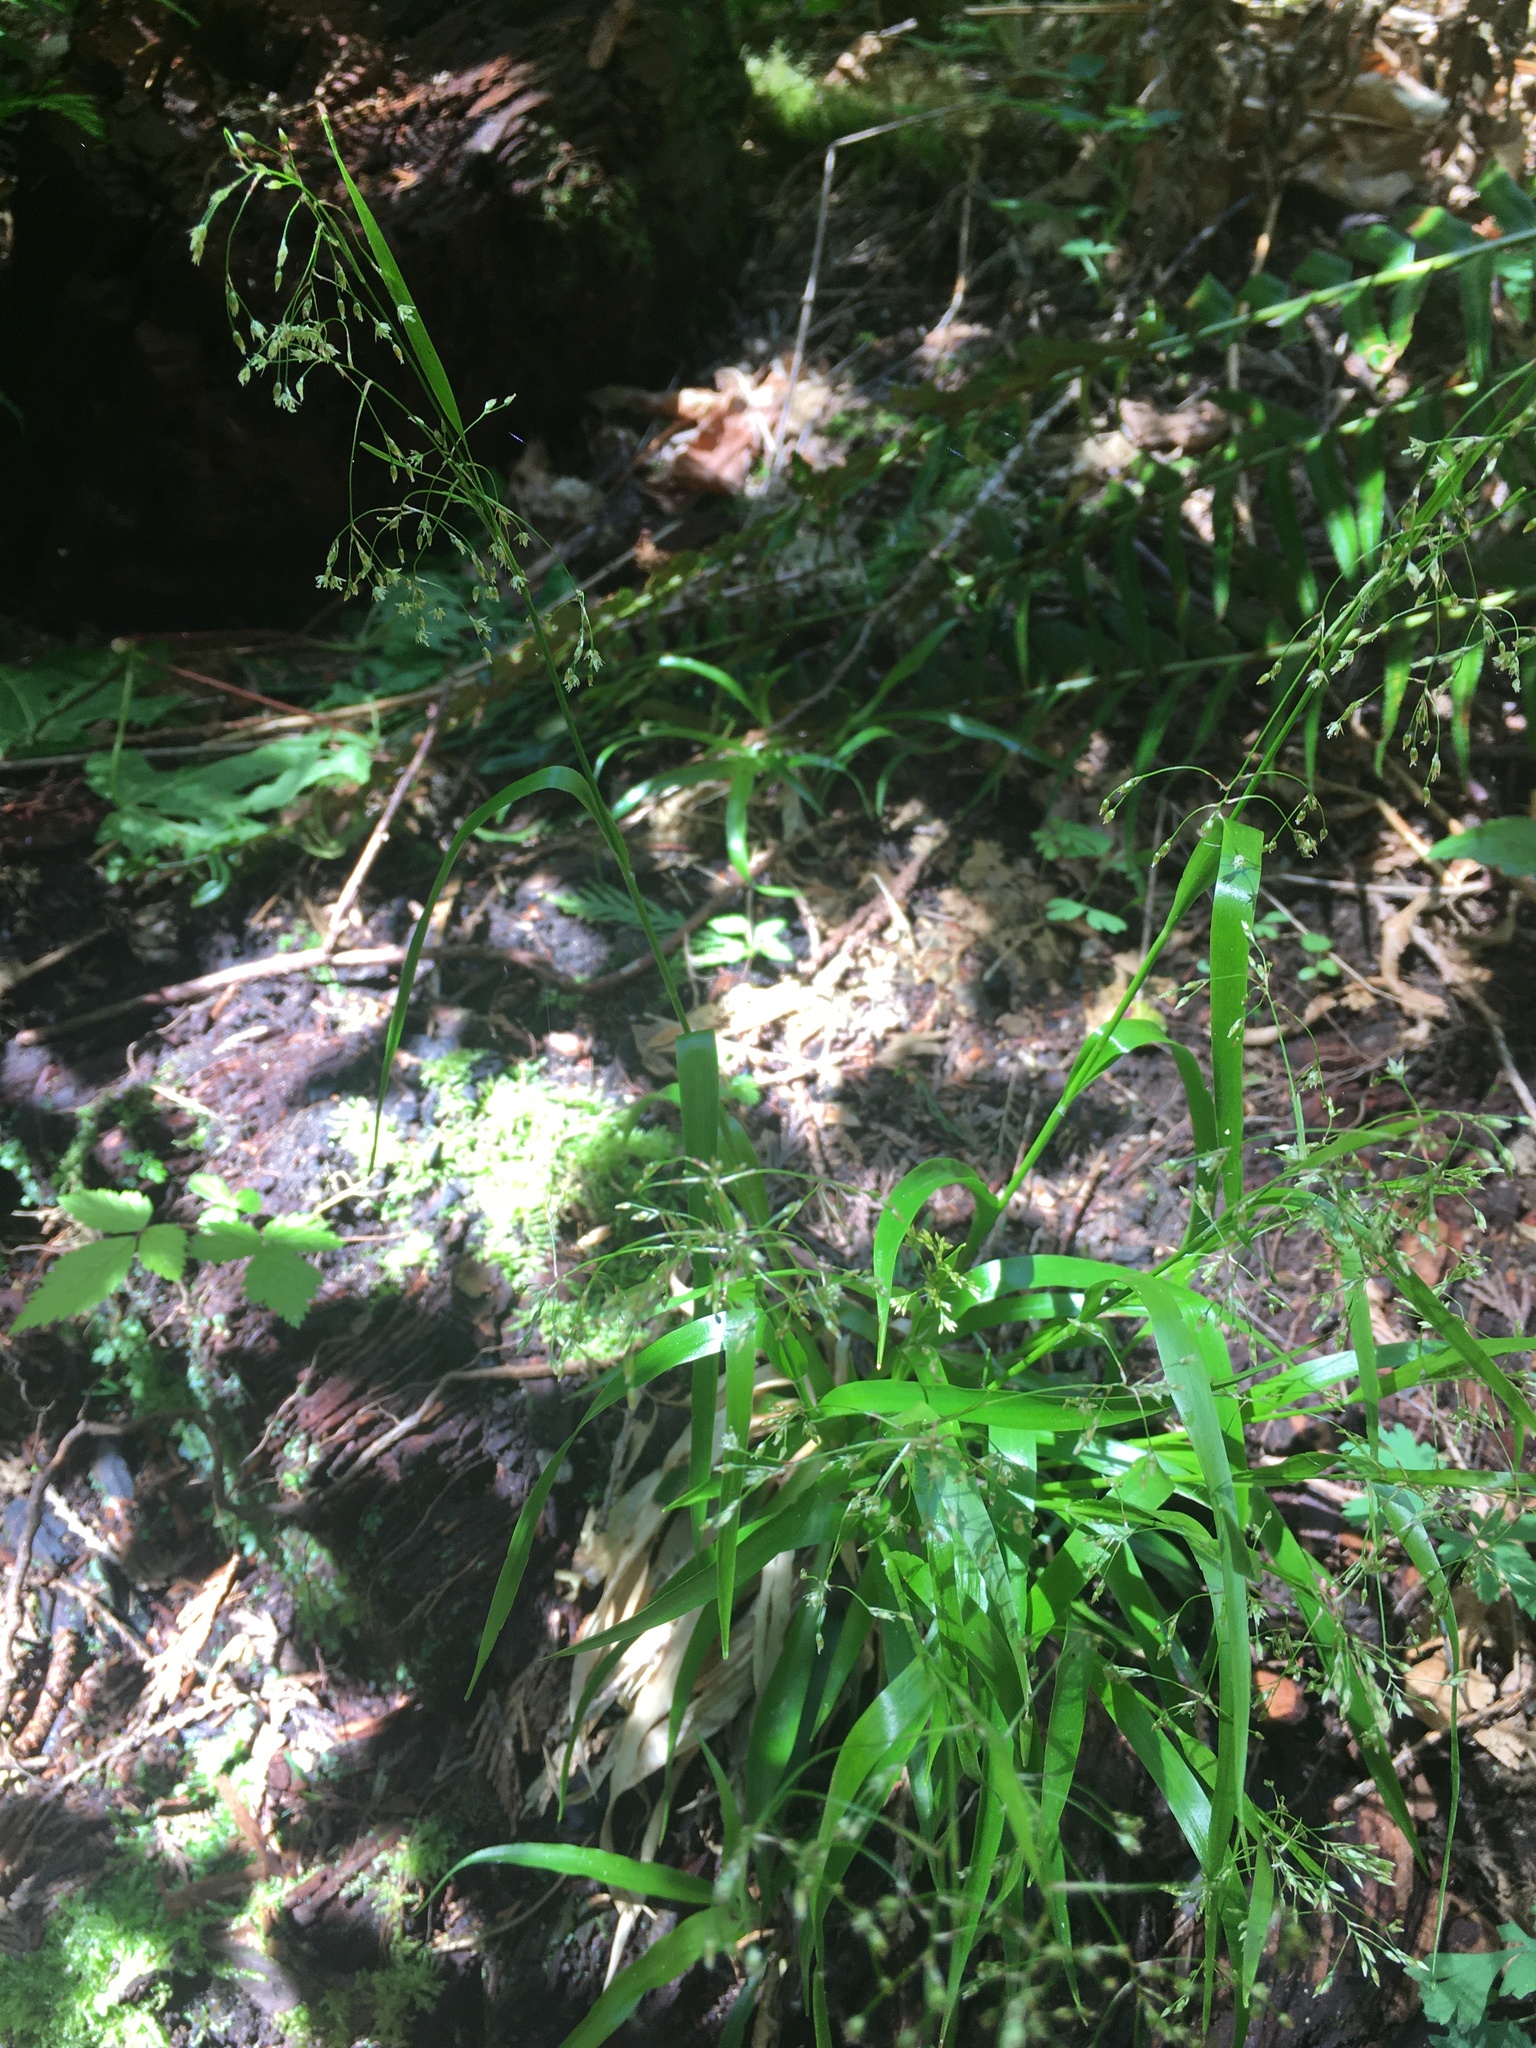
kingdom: Plantae
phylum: Tracheophyta
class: Liliopsida
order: Poales
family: Juncaceae
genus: Luzula
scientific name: Luzula parviflora
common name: Millet woodrush
